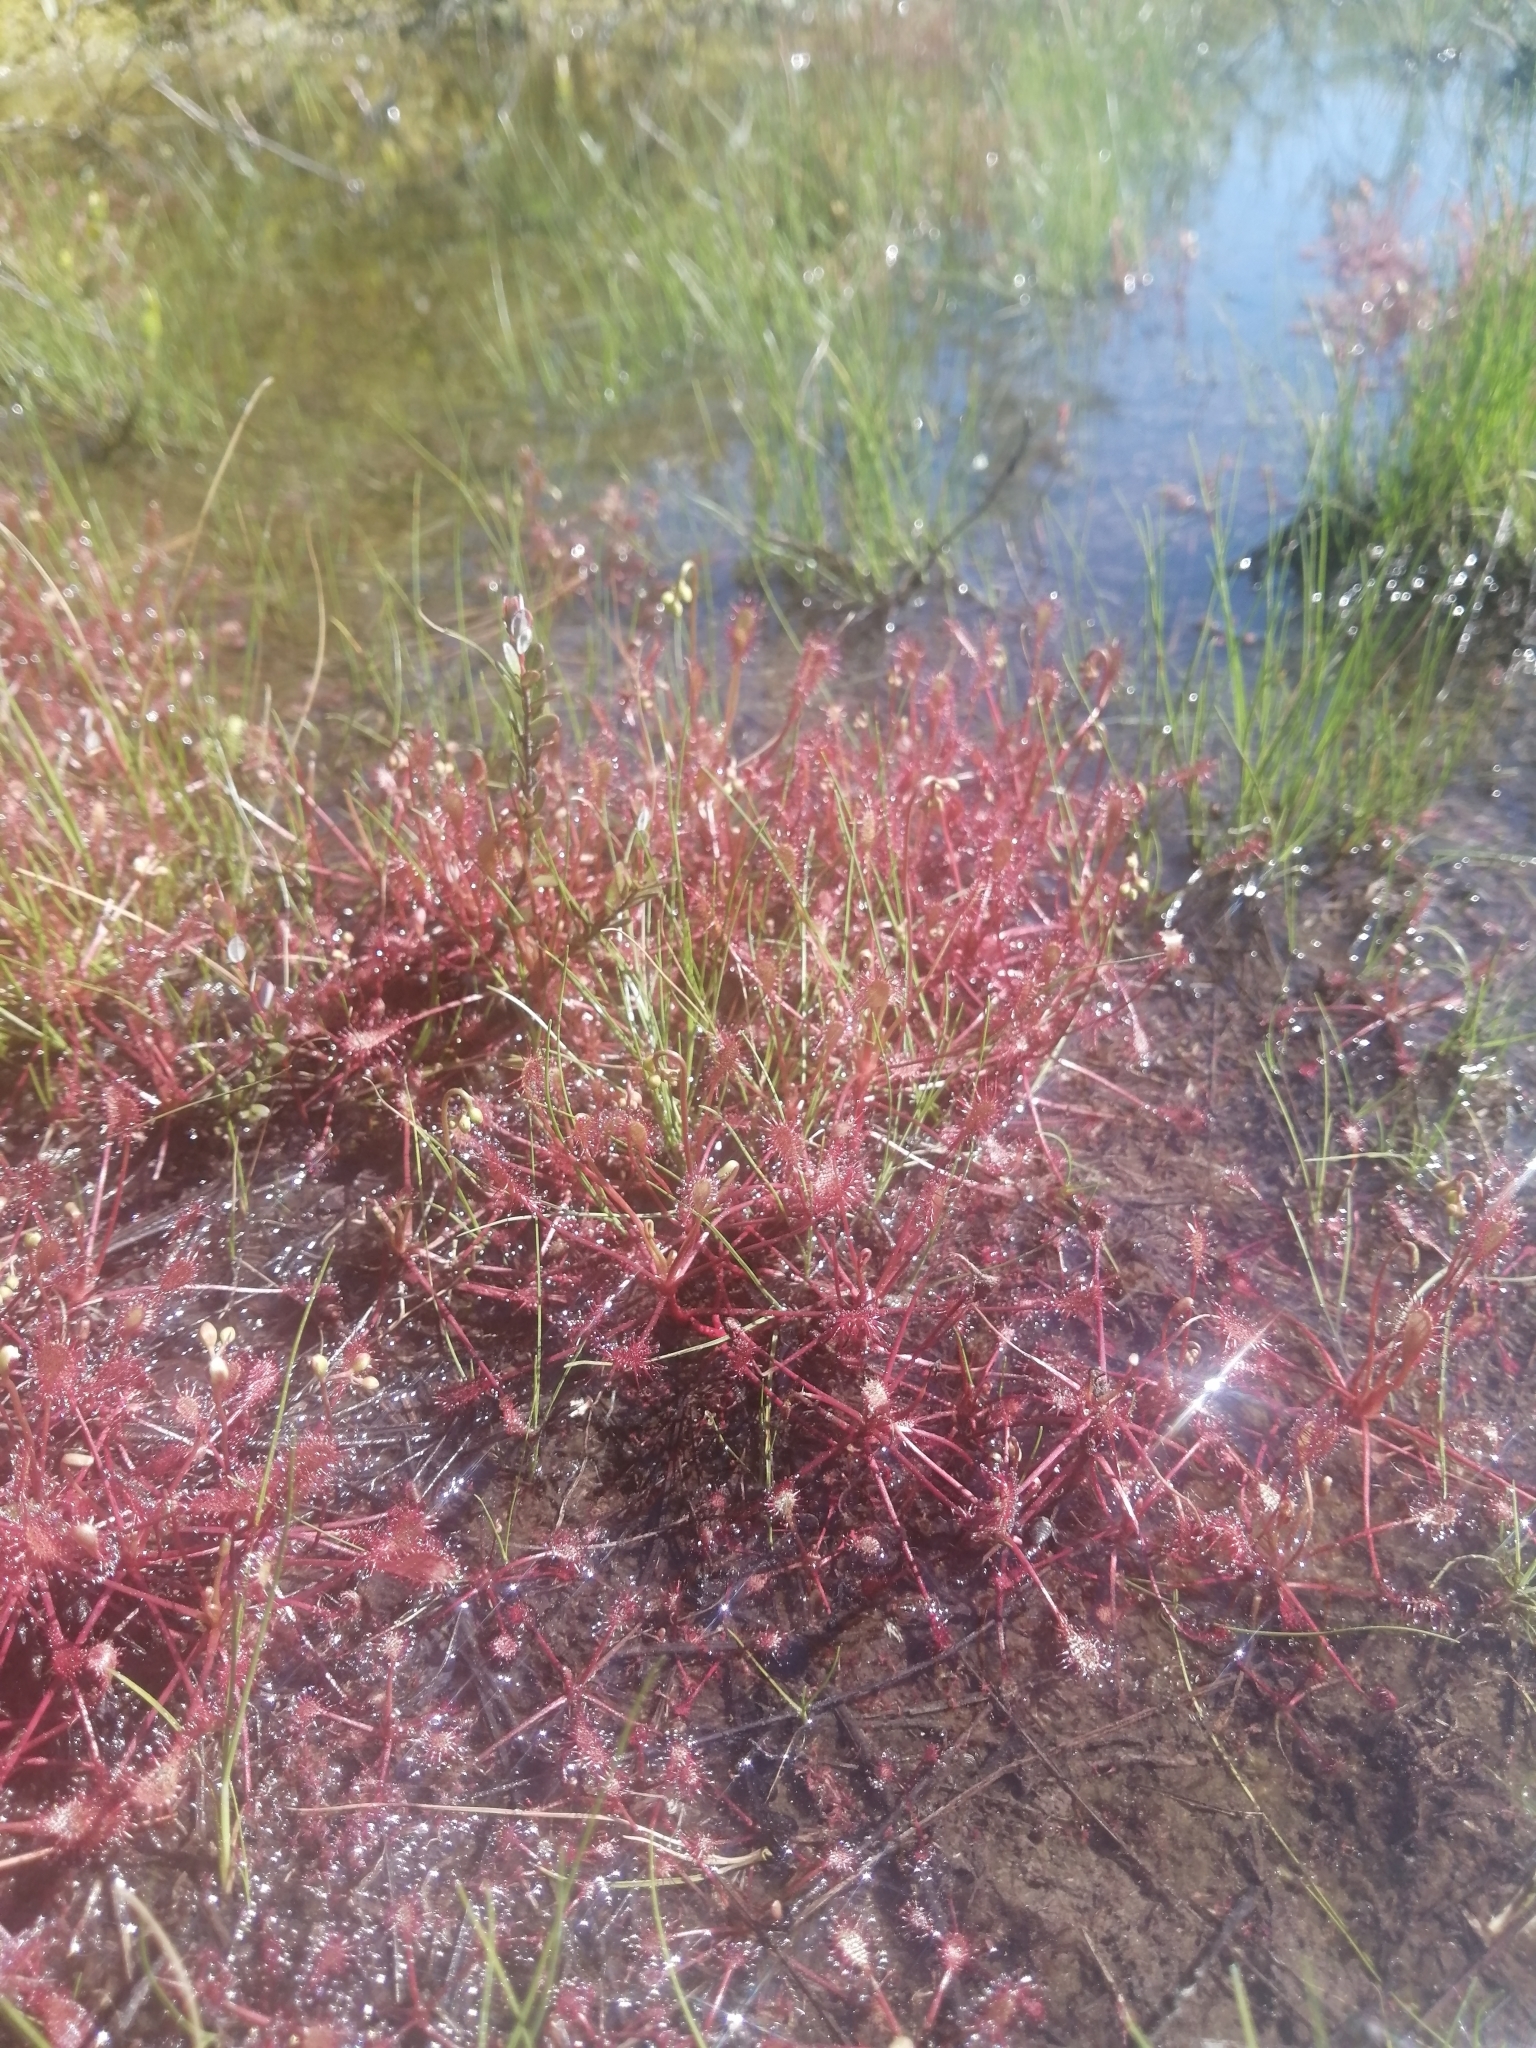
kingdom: Plantae
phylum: Tracheophyta
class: Magnoliopsida
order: Caryophyllales
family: Droseraceae
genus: Drosera
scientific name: Drosera intermedia
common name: Oblong-leaved sundew
